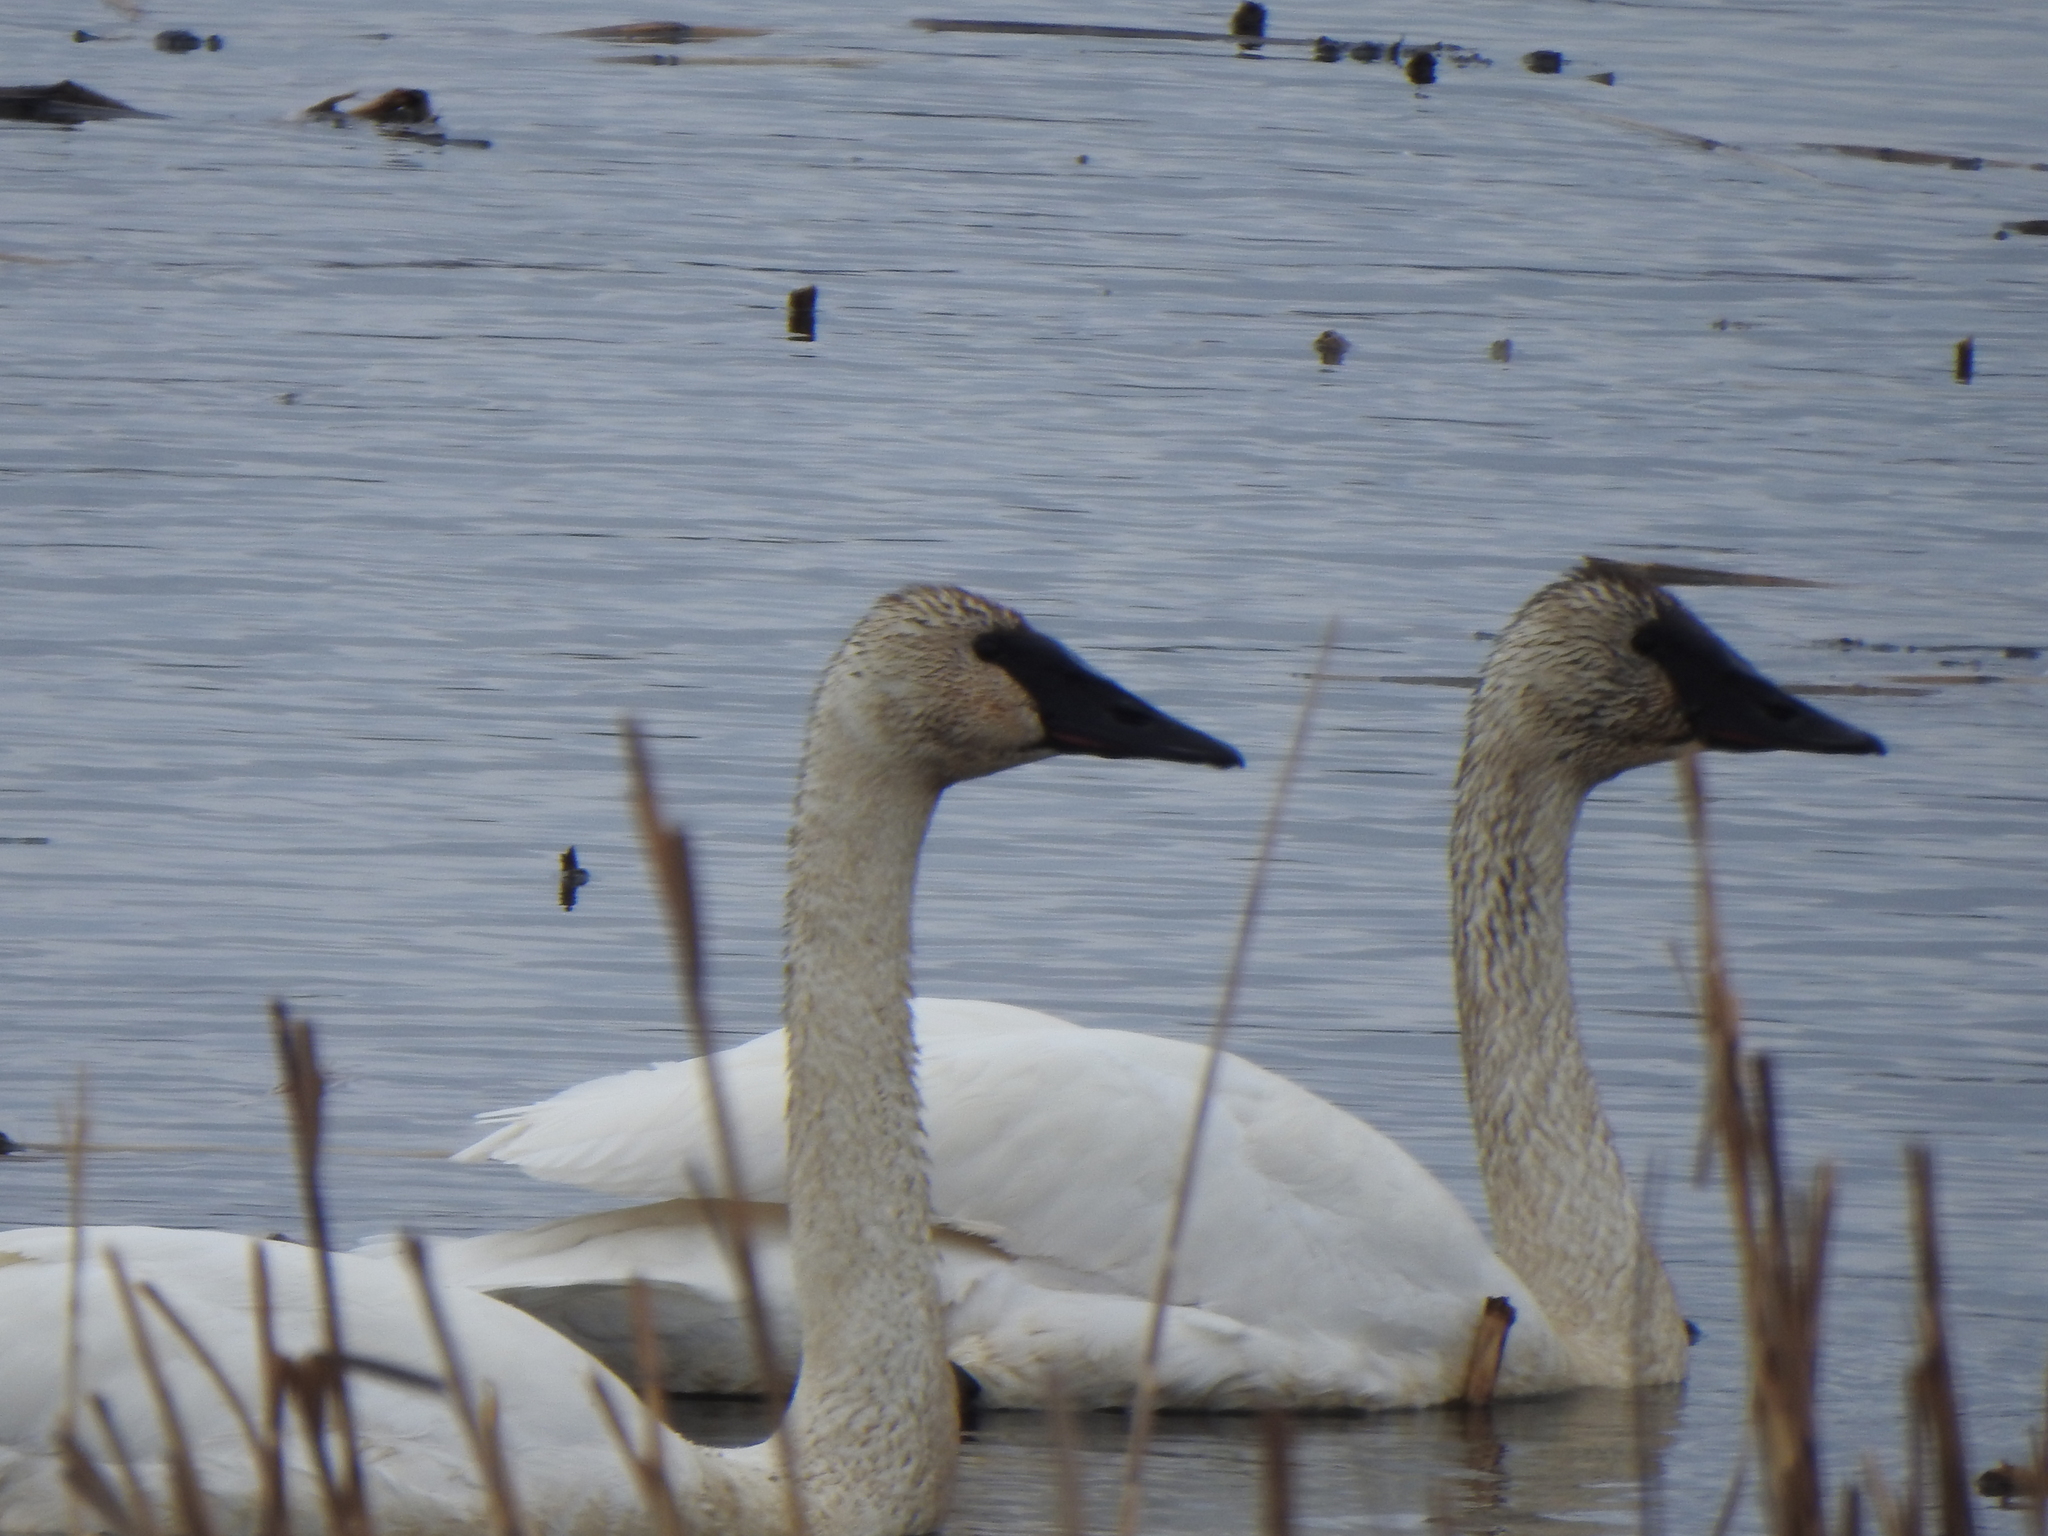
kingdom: Animalia
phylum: Chordata
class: Aves
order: Anseriformes
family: Anatidae
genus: Cygnus
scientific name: Cygnus buccinator
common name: Trumpeter swan
